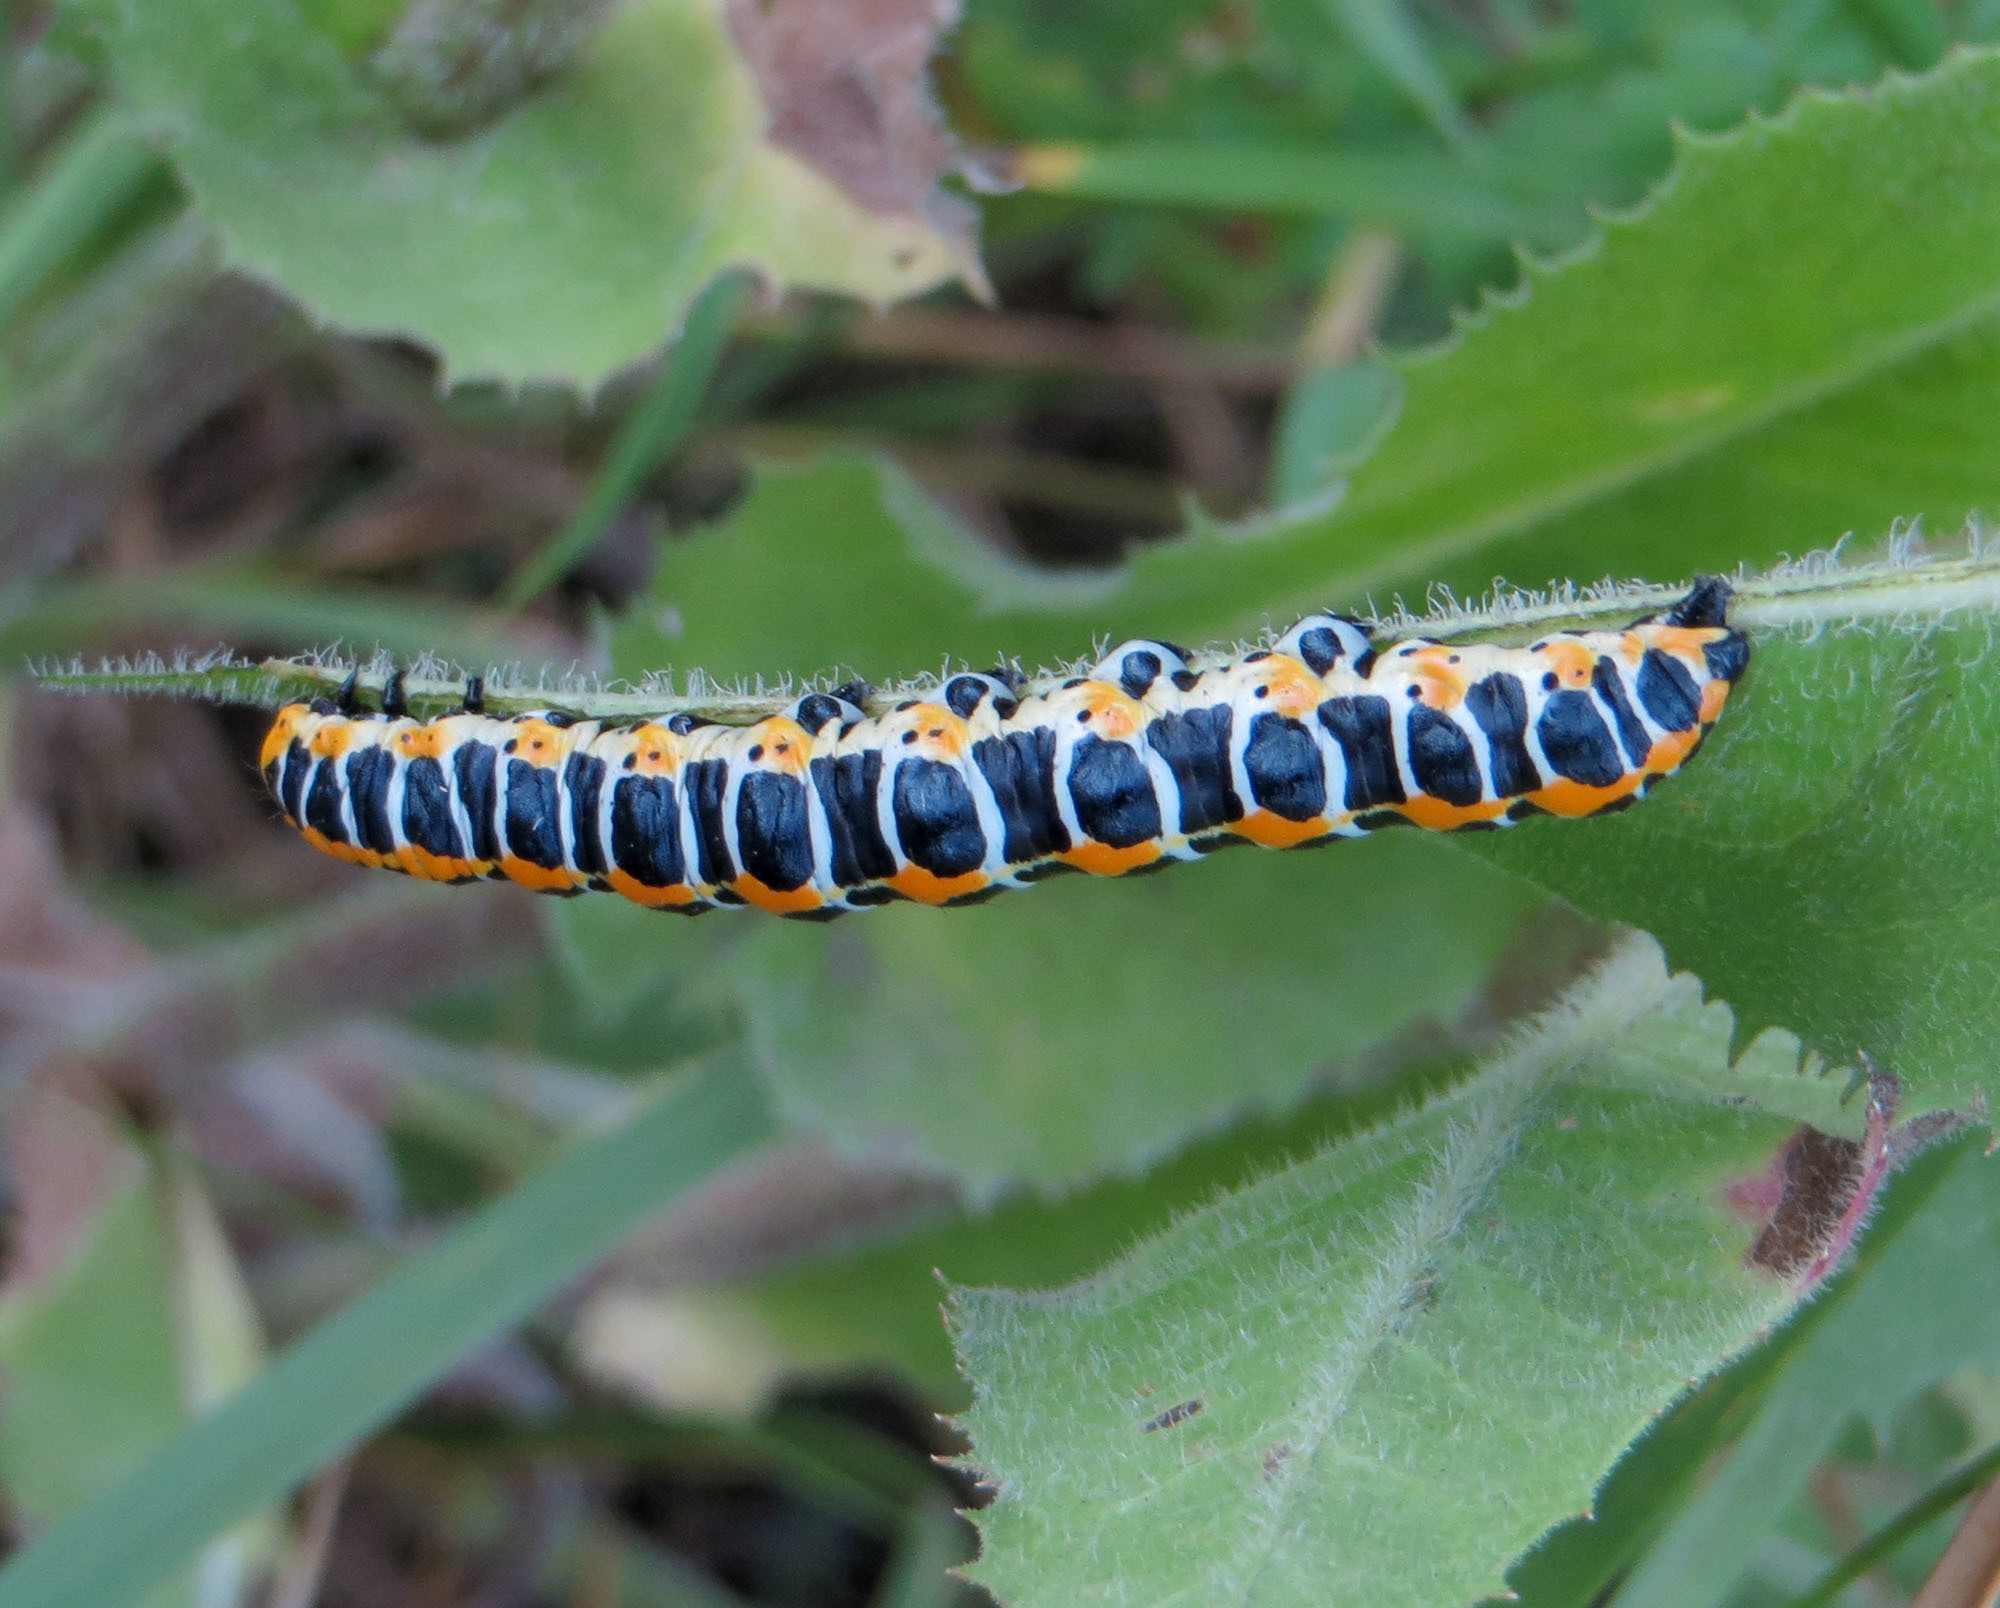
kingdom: Animalia
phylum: Arthropoda
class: Insecta
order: Lepidoptera
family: Noctuidae
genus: Cucullia
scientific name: Cucullia lactucae
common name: Lettuce shark
